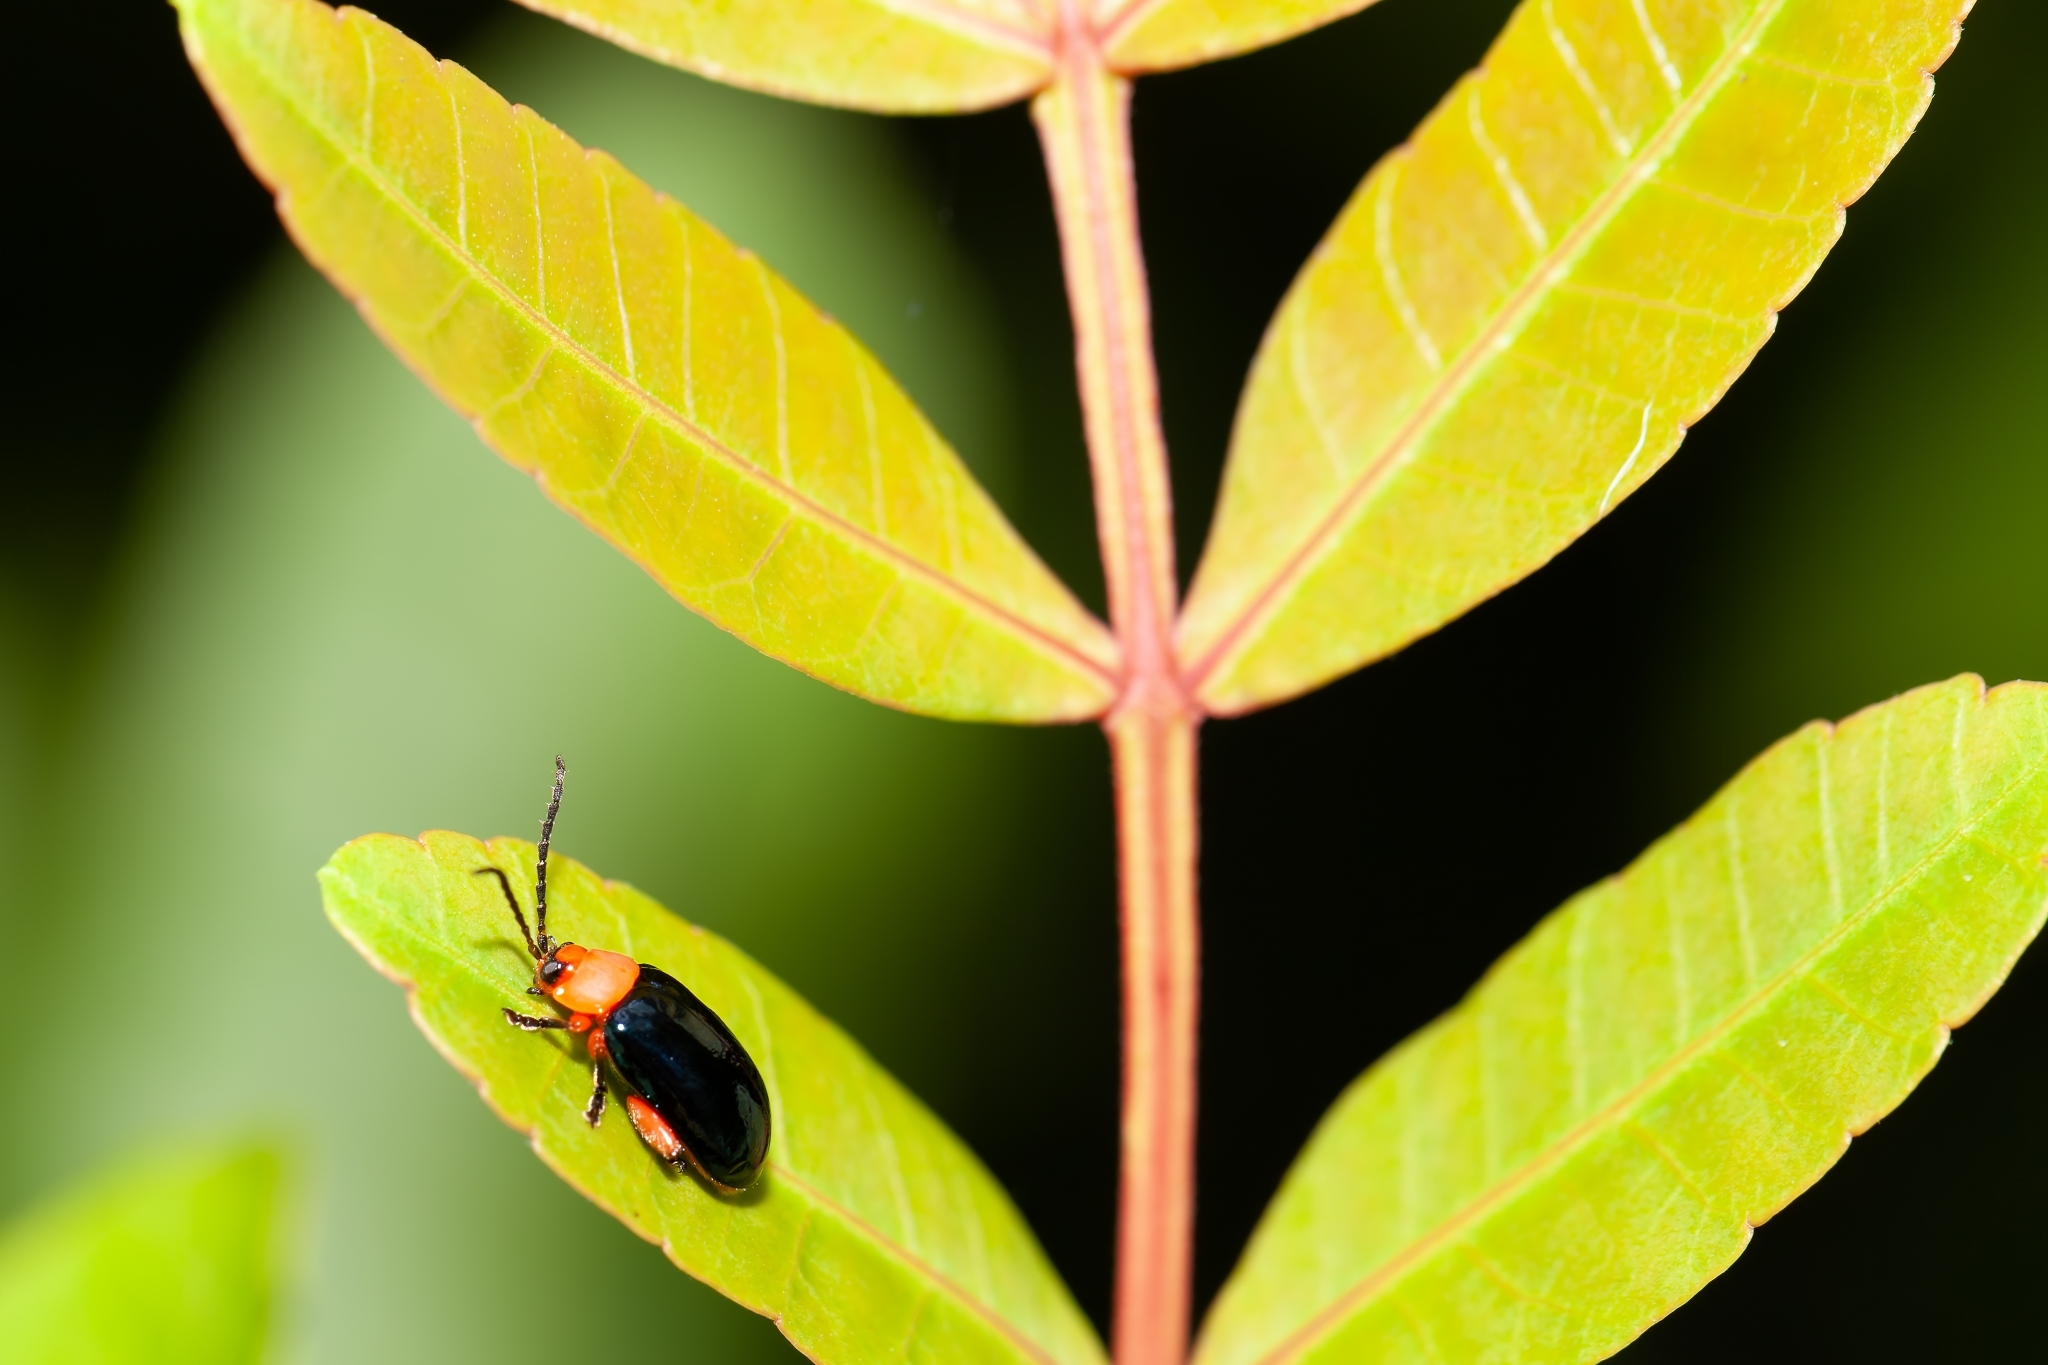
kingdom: Animalia
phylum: Arthropoda
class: Insecta
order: Coleoptera
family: Chrysomelidae
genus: Asphaera
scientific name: Asphaera lustrans
